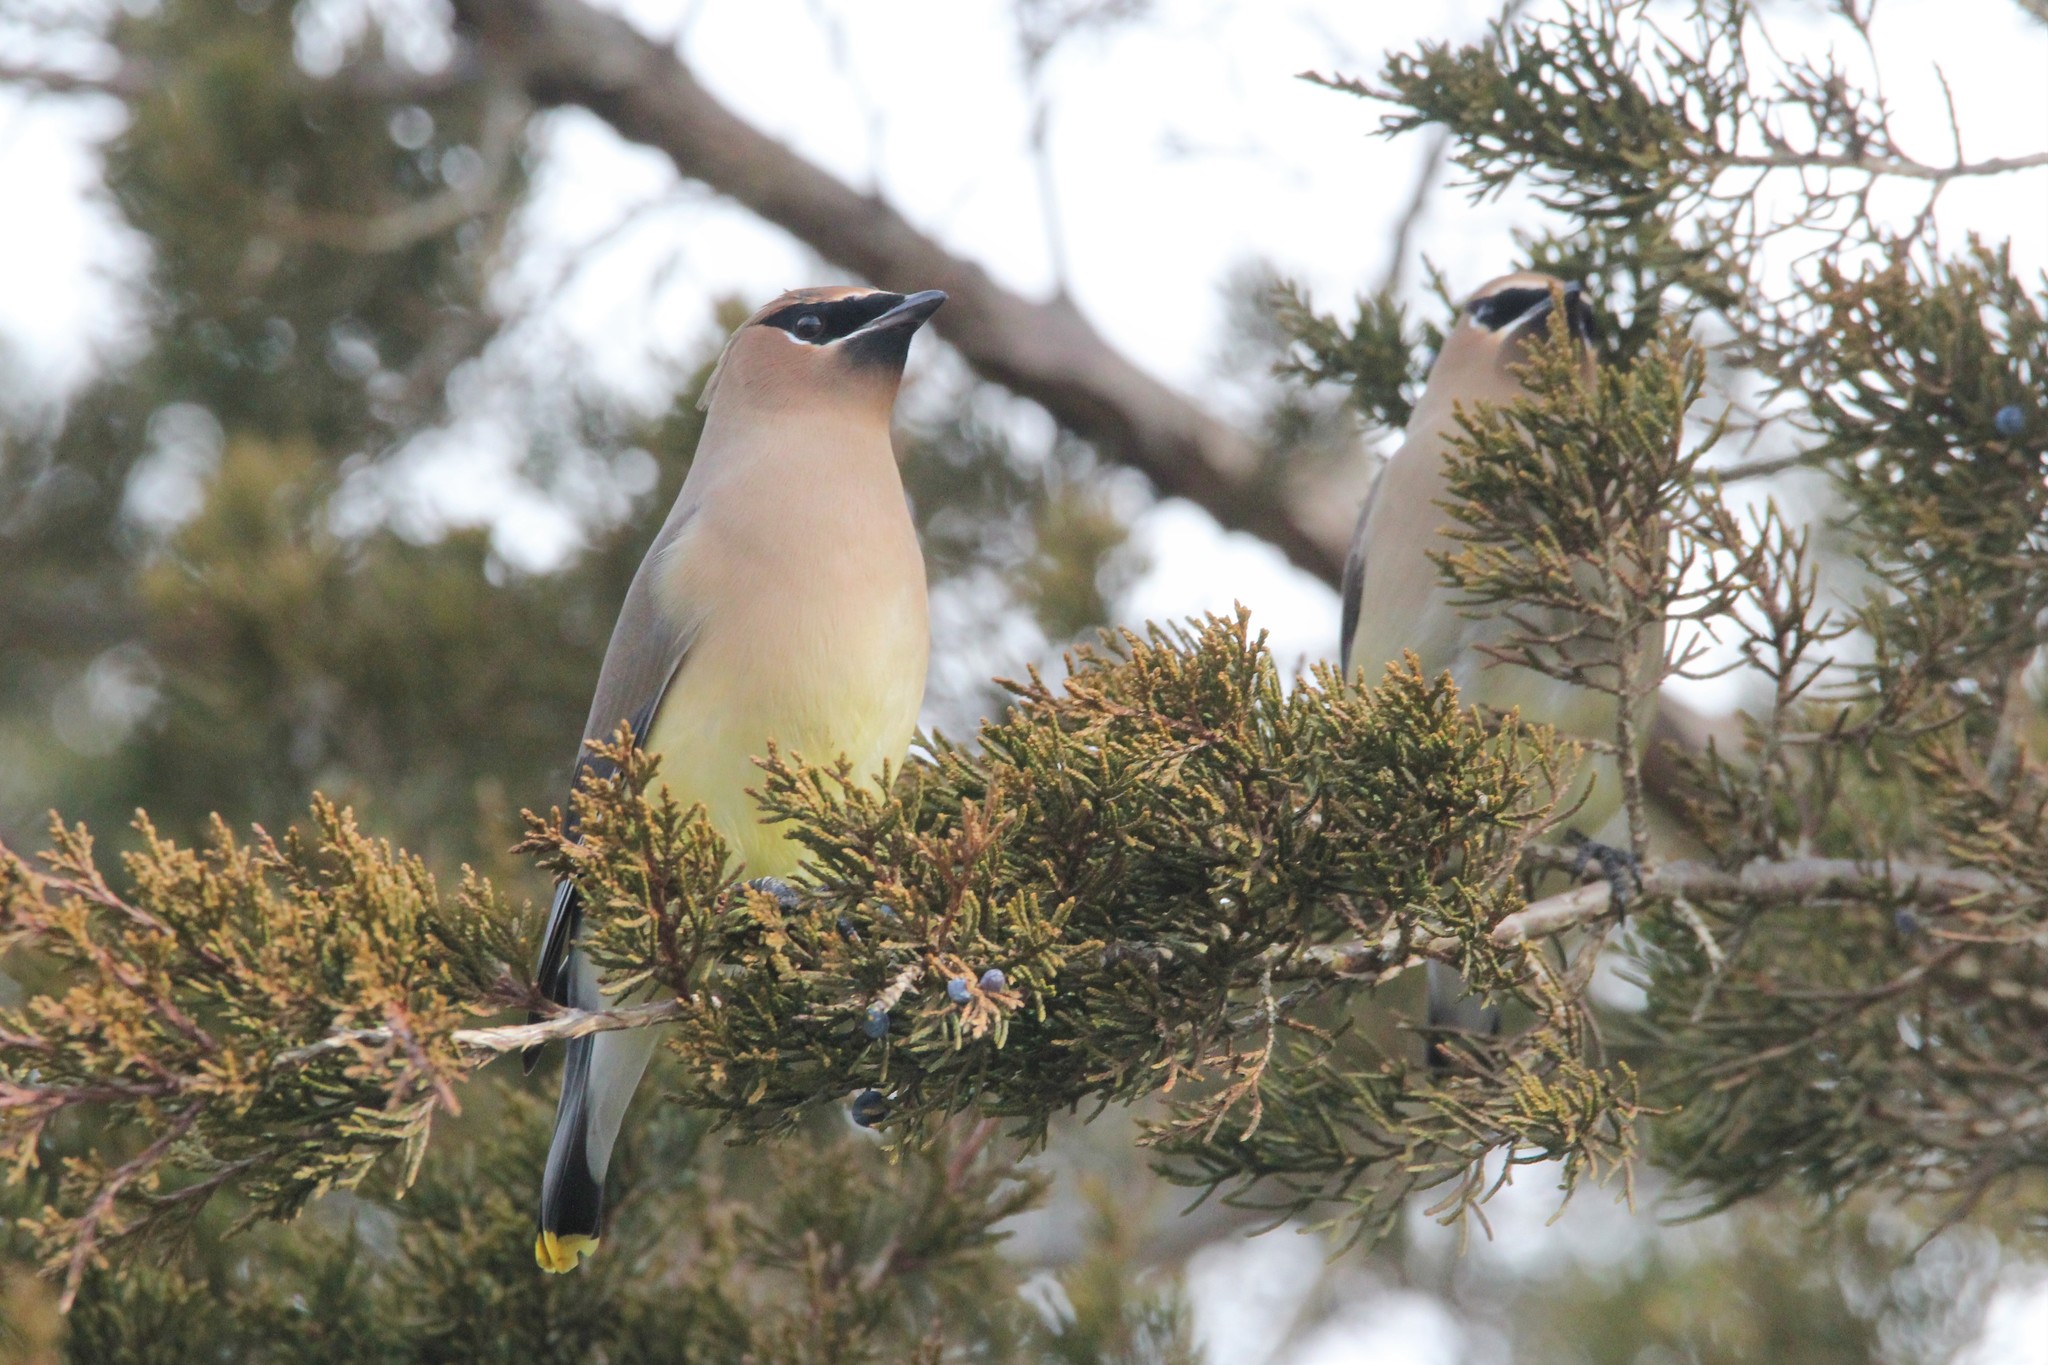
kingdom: Animalia
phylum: Chordata
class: Aves
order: Passeriformes
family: Bombycillidae
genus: Bombycilla
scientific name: Bombycilla cedrorum
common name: Cedar waxwing
